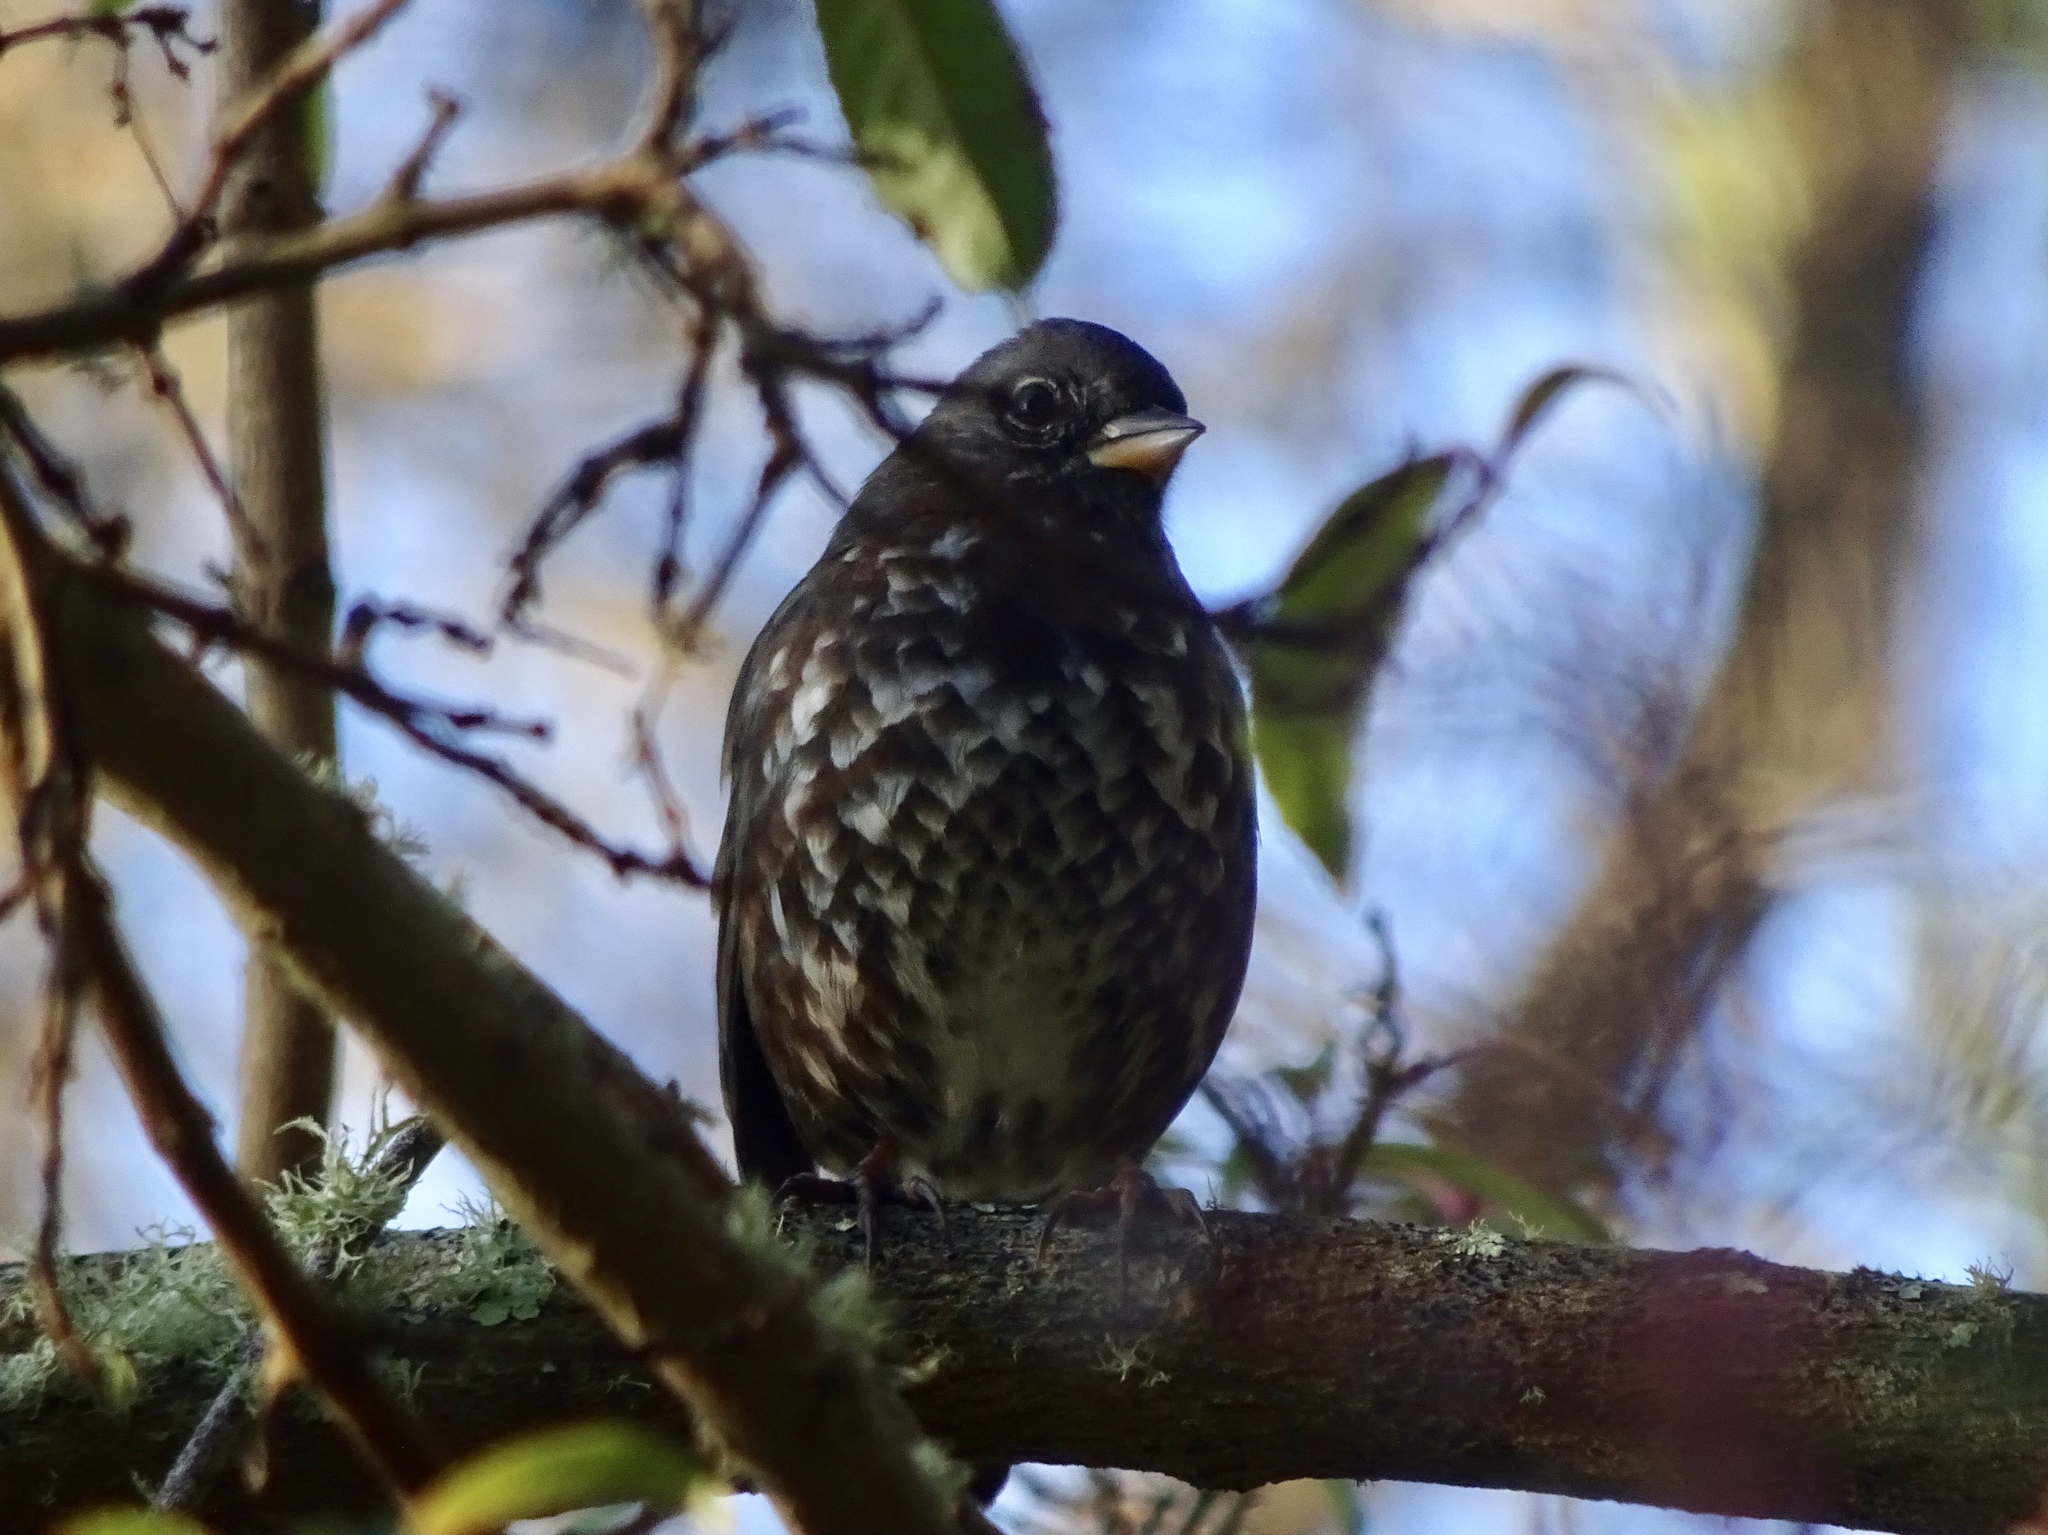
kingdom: Animalia
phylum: Chordata
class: Aves
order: Passeriformes
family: Passerellidae
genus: Passerella
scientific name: Passerella iliaca
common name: Fox sparrow
